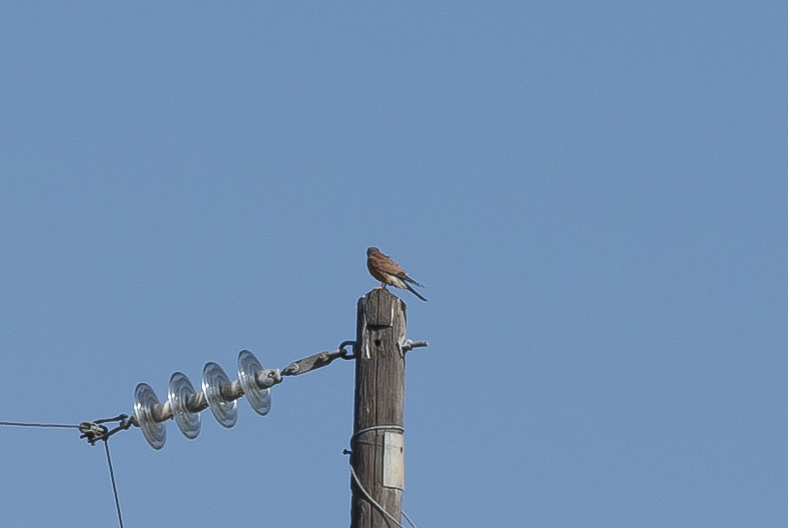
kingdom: Animalia
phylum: Chordata
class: Aves
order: Falconiformes
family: Falconidae
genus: Falco
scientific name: Falco tinnunculus
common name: Common kestrel
